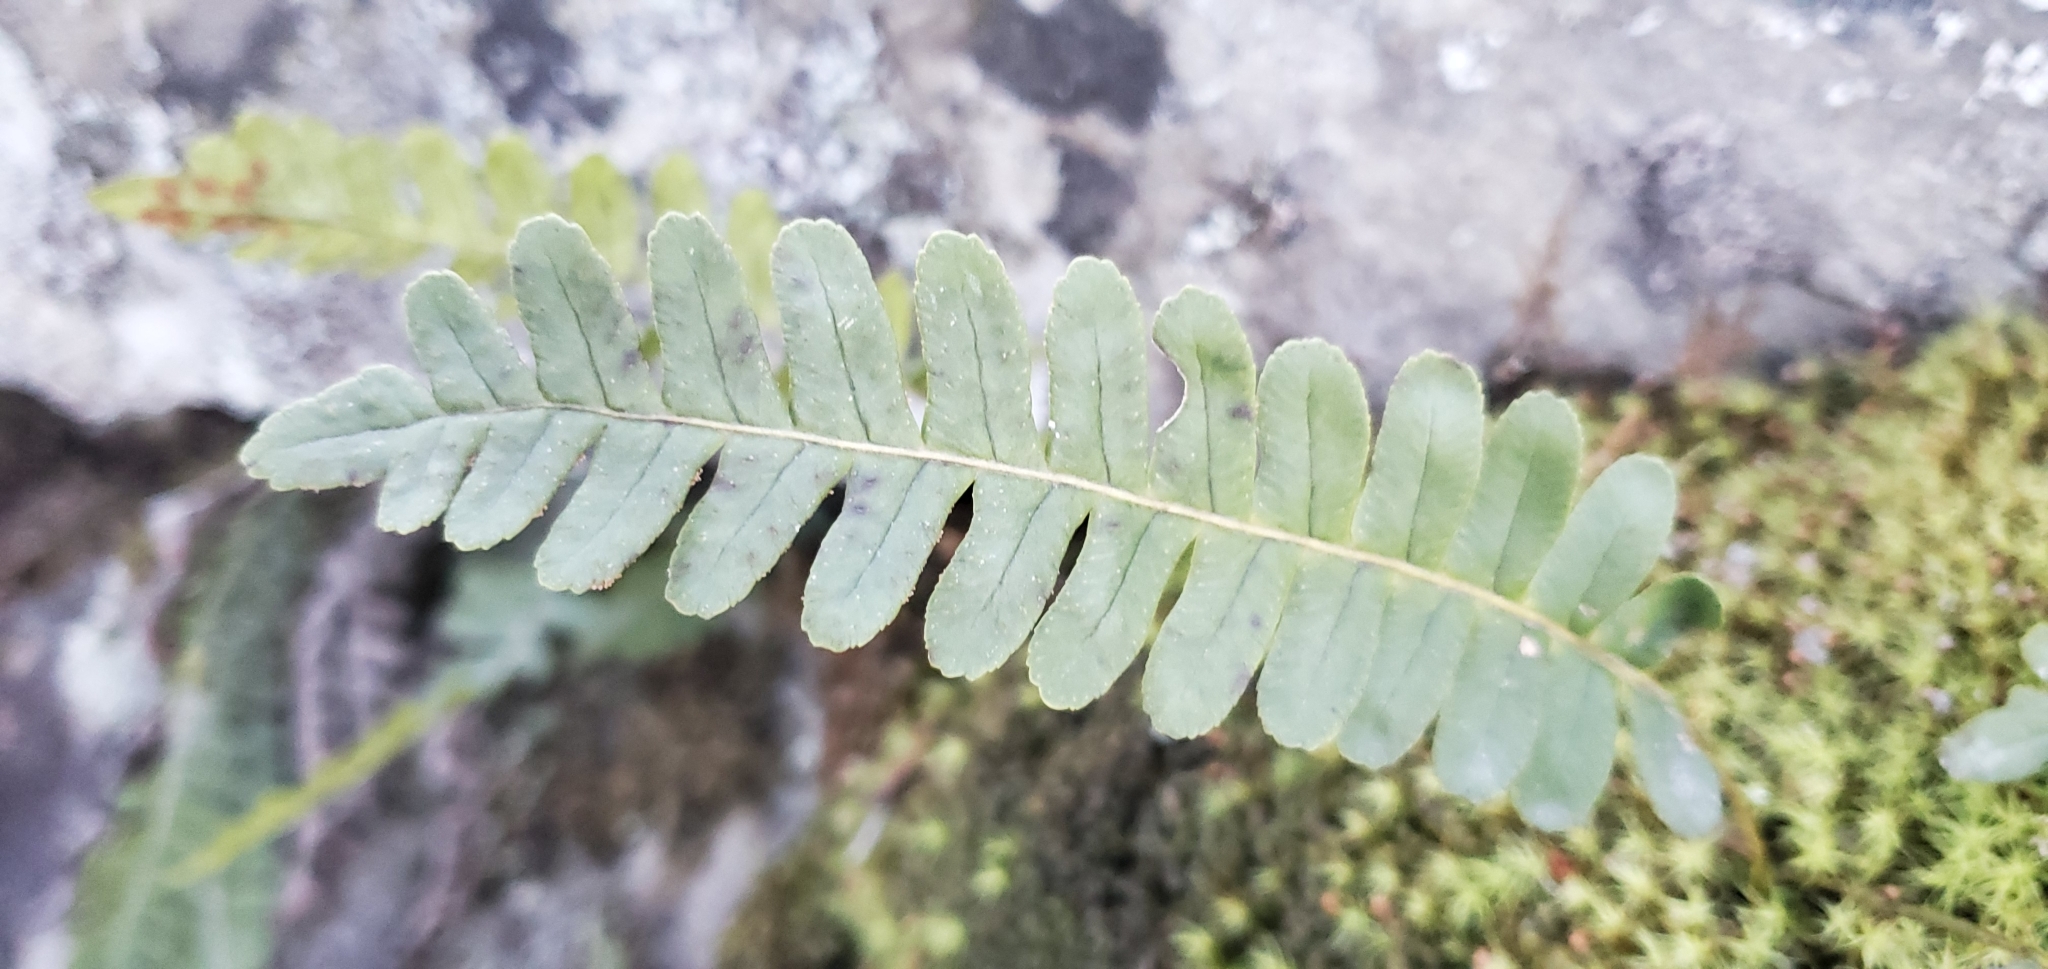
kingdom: Plantae
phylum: Tracheophyta
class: Polypodiopsida
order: Polypodiales
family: Polypodiaceae
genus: Polypodium
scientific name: Polypodium virginianum
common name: American wall fern
